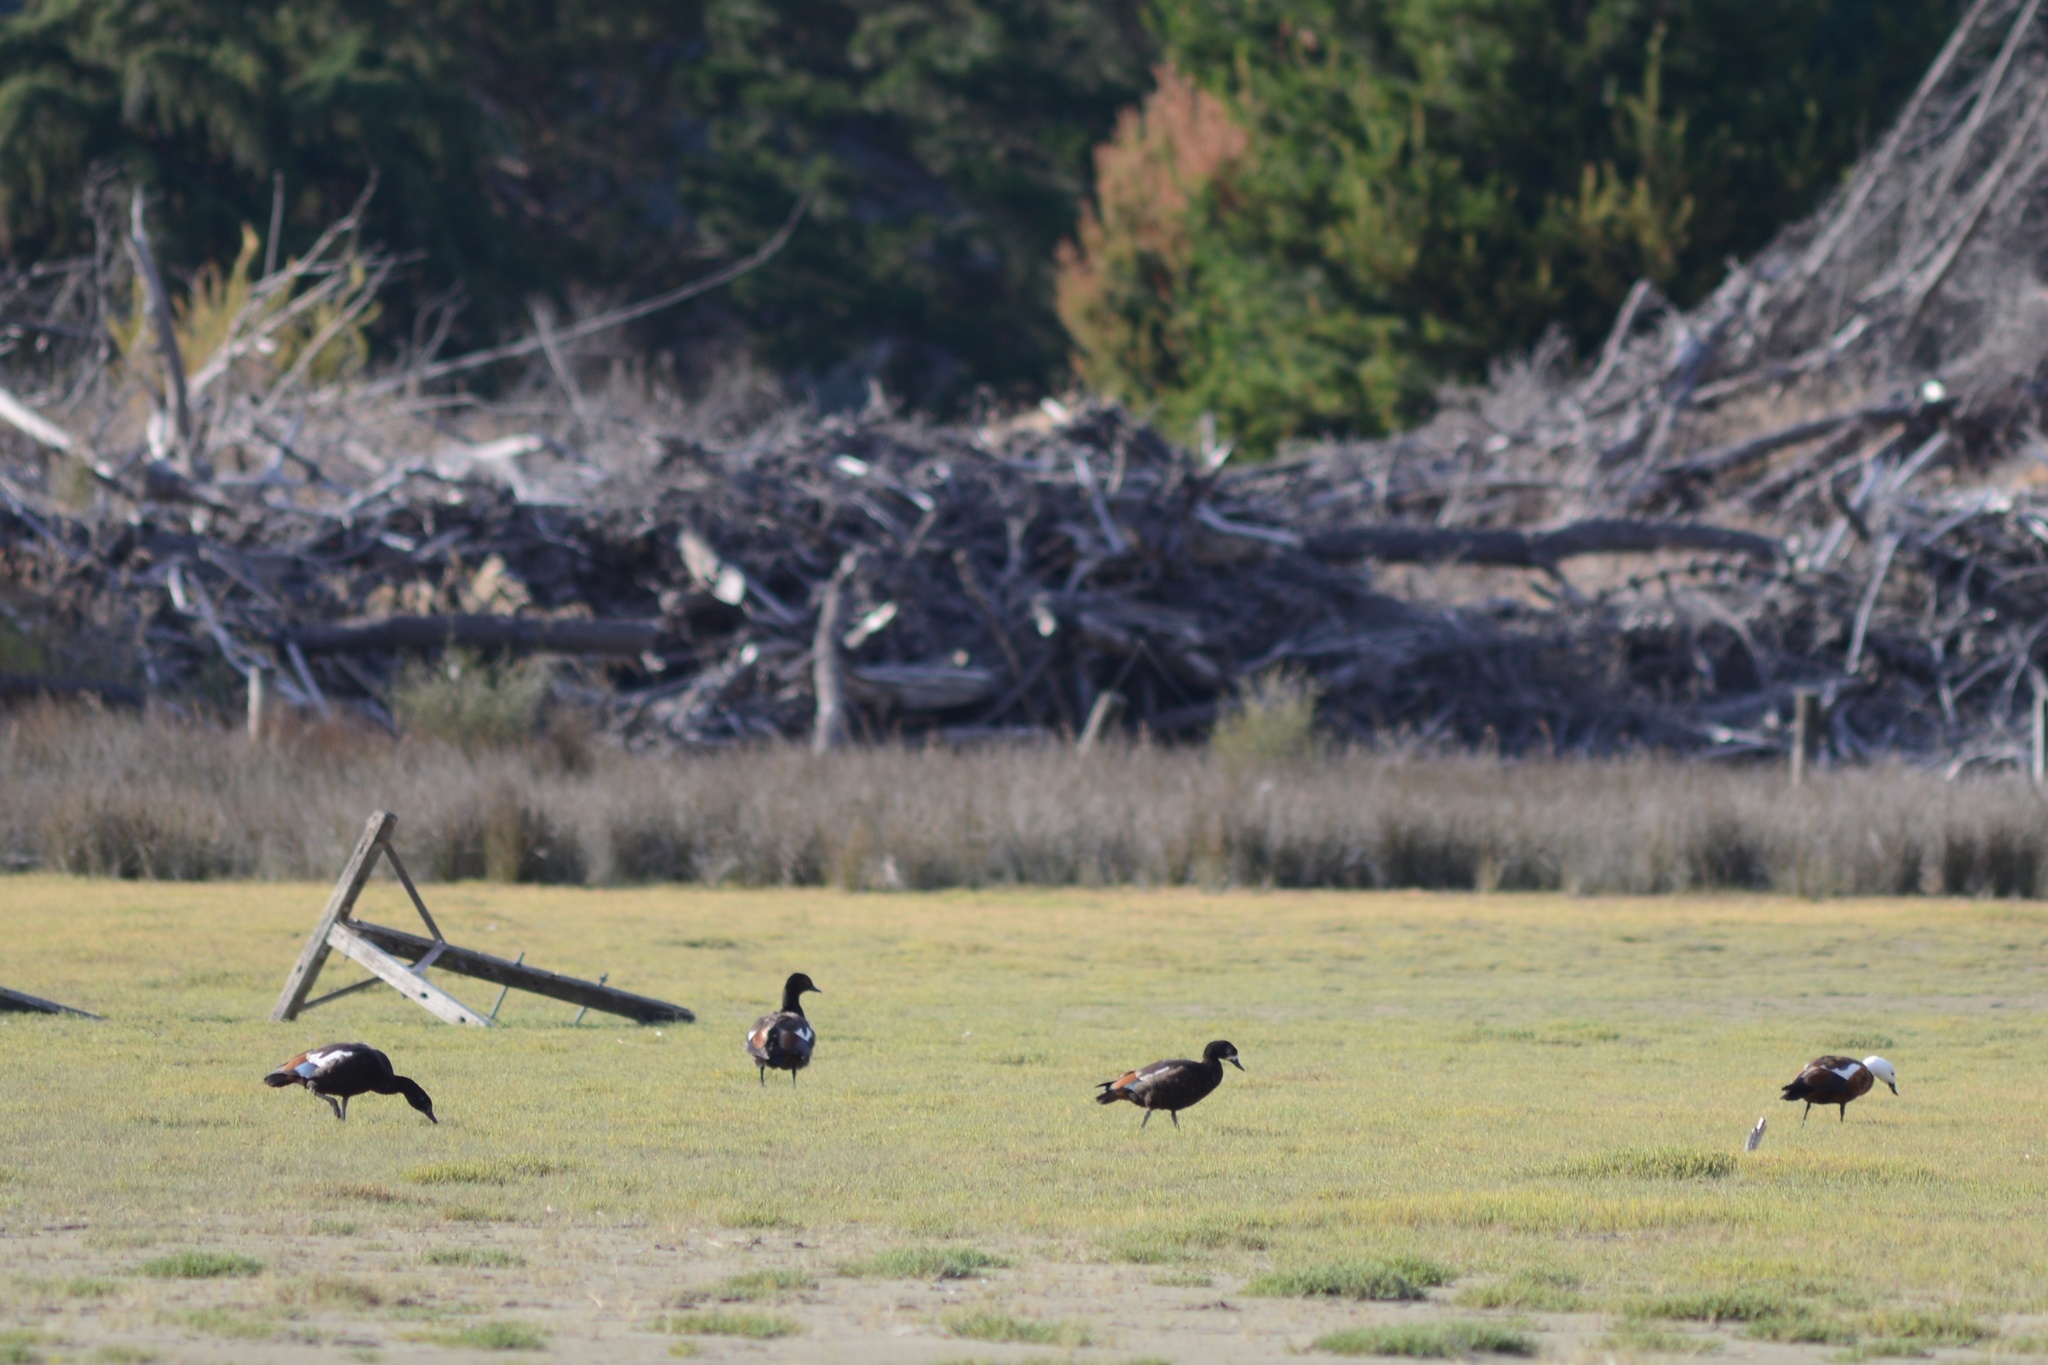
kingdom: Animalia
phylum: Chordata
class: Aves
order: Anseriformes
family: Anatidae
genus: Tadorna
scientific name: Tadorna variegata
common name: Paradise shelduck
